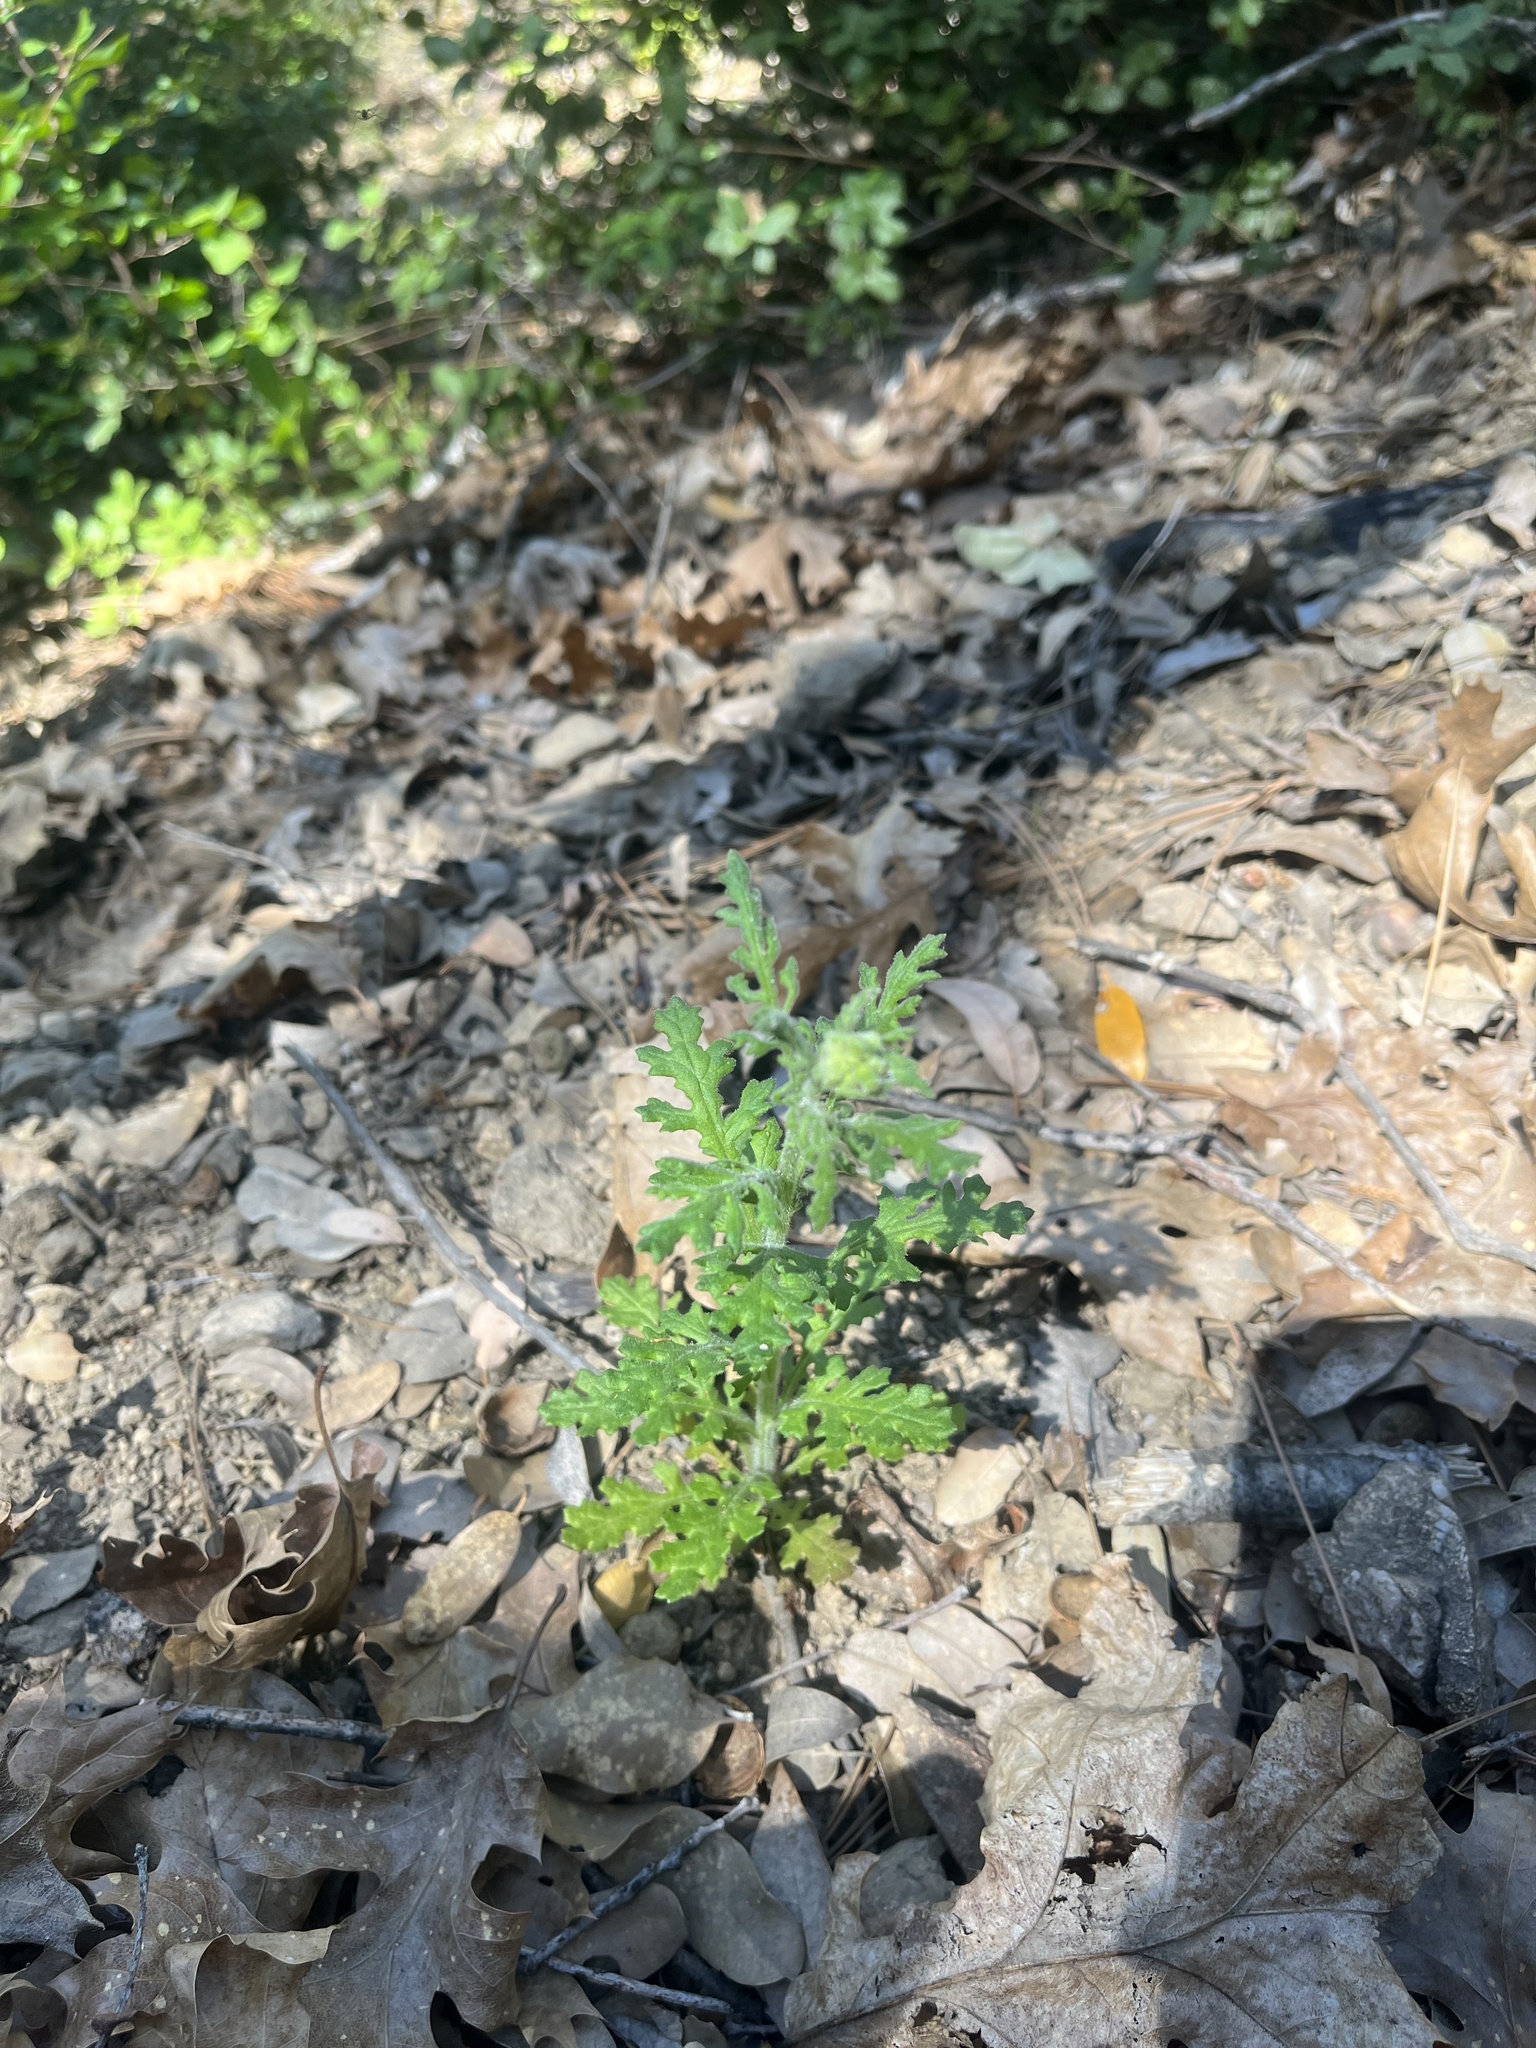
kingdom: Plantae
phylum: Tracheophyta
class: Magnoliopsida
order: Asterales
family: Asteraceae
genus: Senecio
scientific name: Senecio sylvaticus
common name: Woodland ragwort
